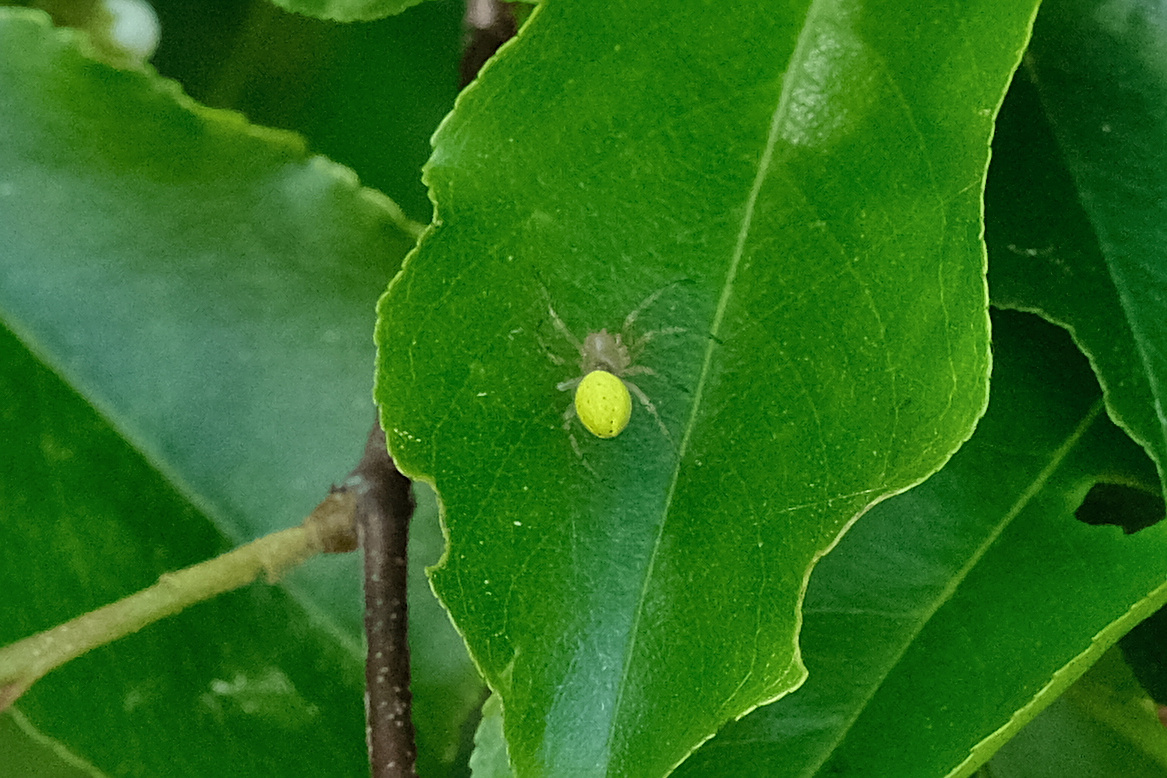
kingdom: Animalia
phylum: Arthropoda
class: Arachnida
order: Araneae
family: Araneidae
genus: Araniella
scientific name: Araniella
